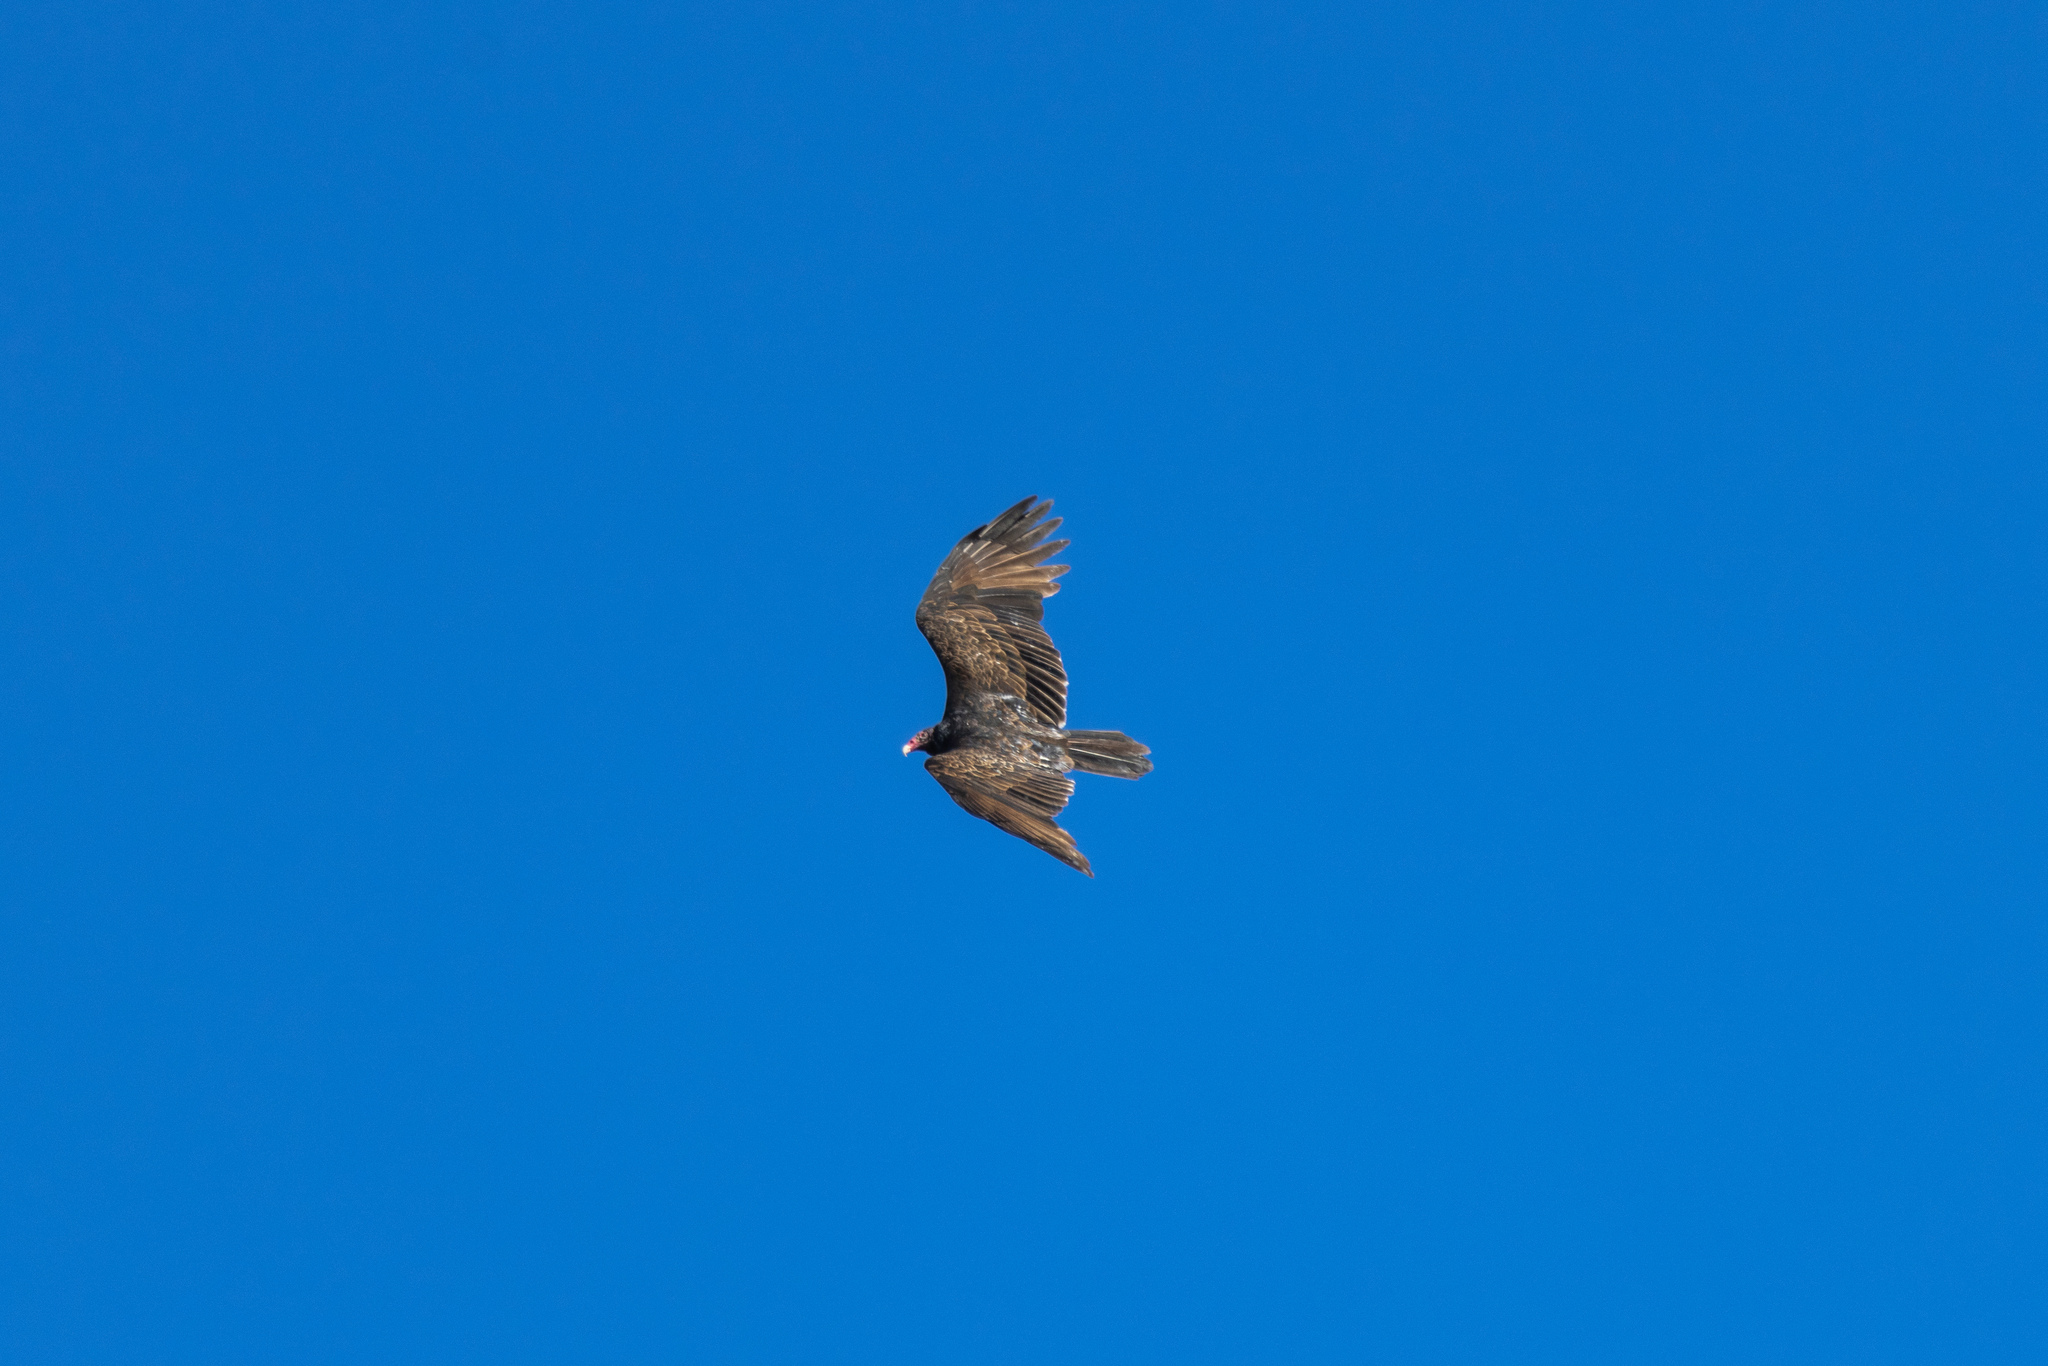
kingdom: Animalia
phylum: Chordata
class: Aves
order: Accipitriformes
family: Cathartidae
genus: Cathartes
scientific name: Cathartes aura
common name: Turkey vulture
